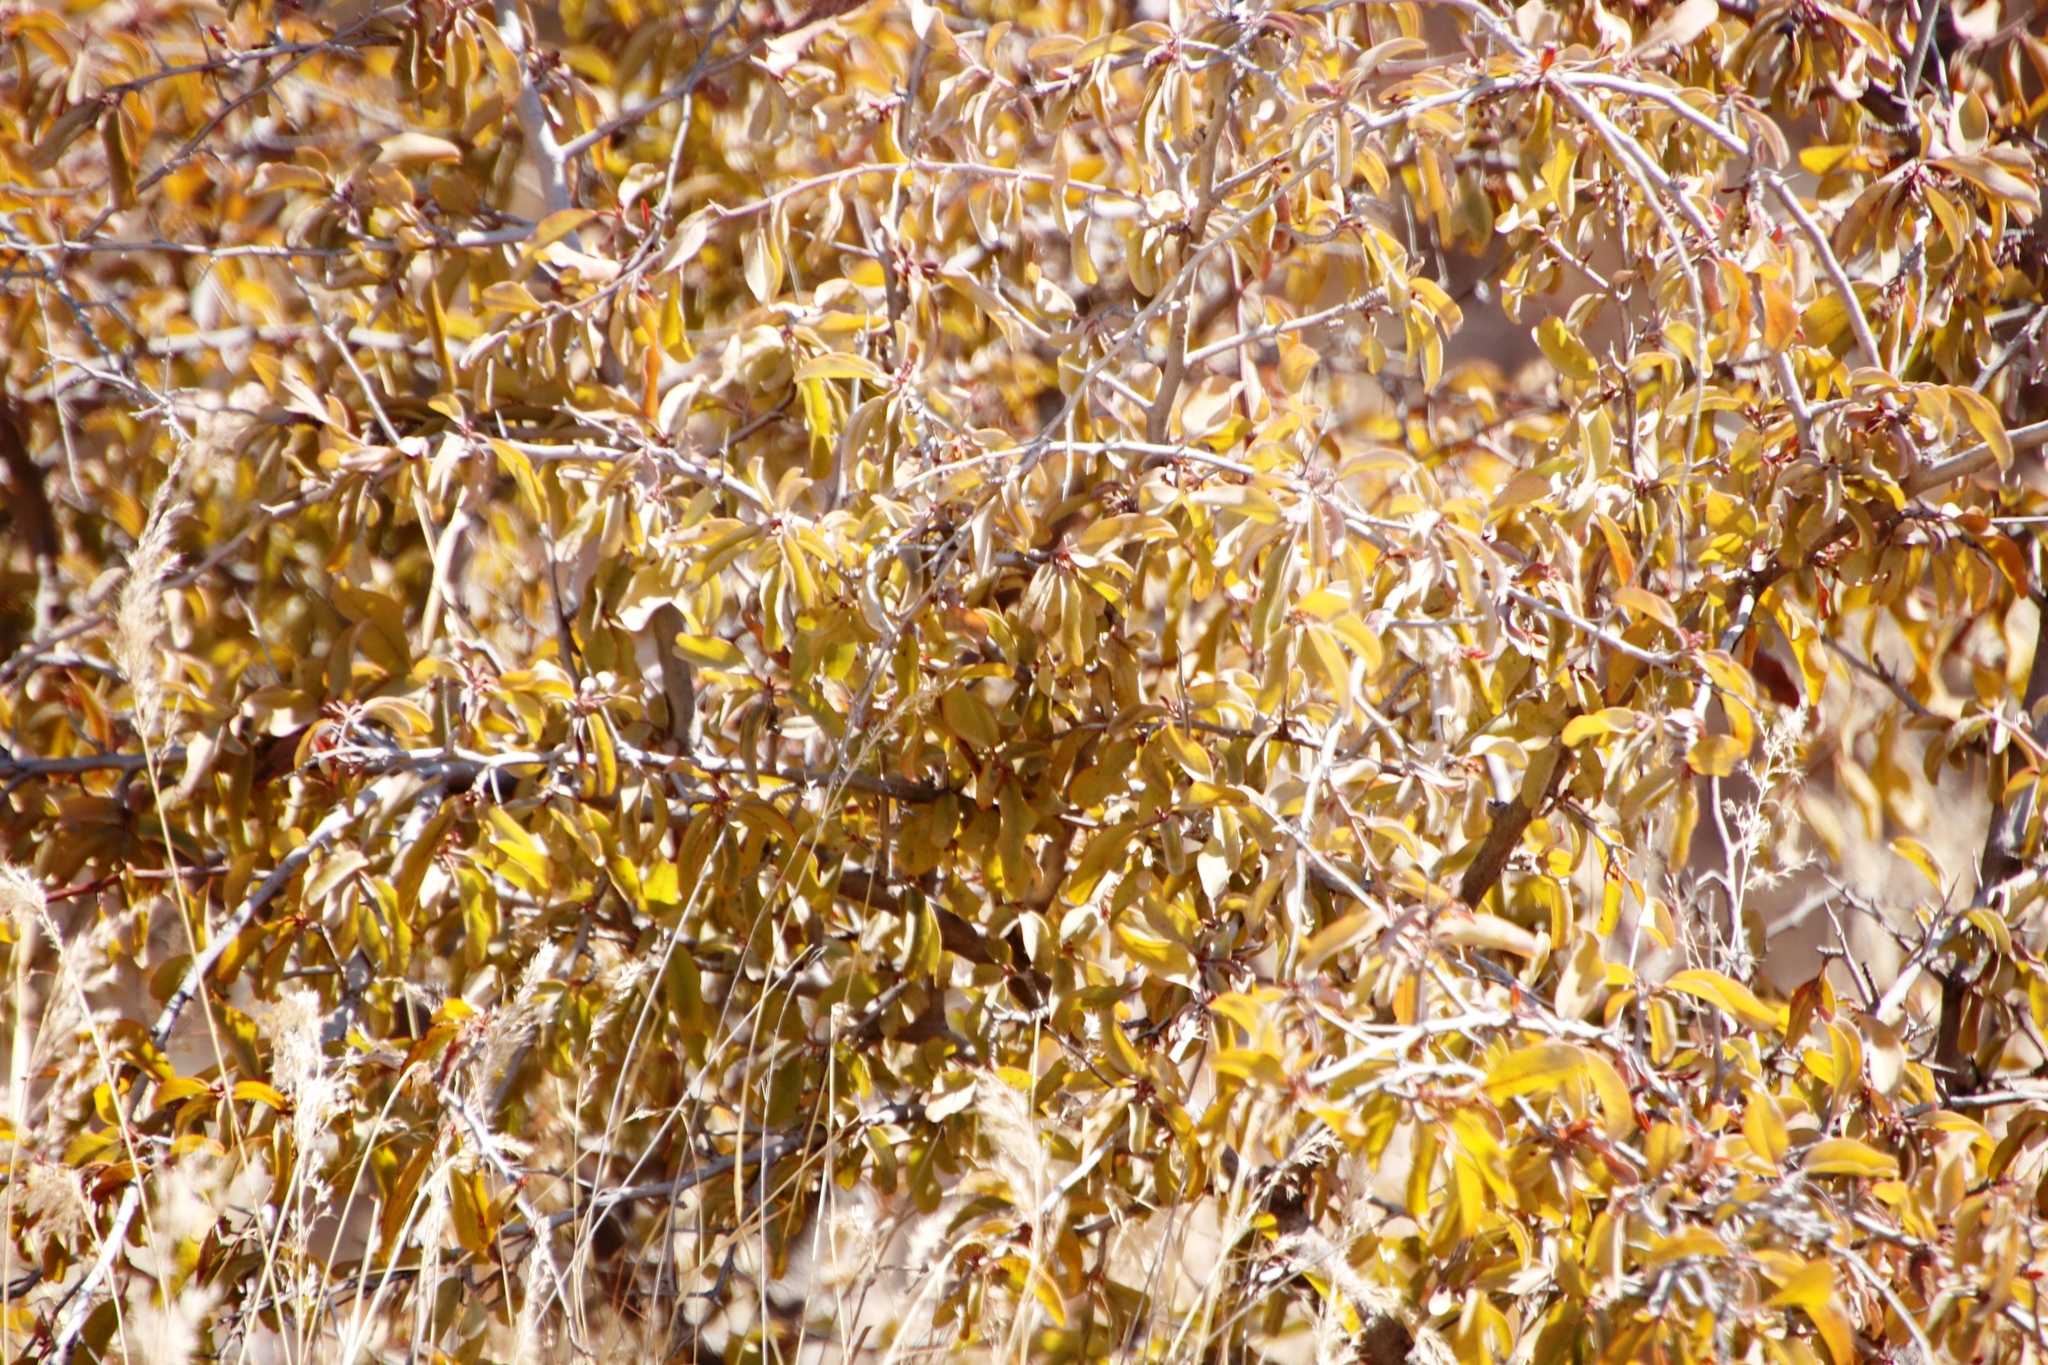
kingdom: Plantae
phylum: Tracheophyta
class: Magnoliopsida
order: Santalales
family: Ximeniaceae
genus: Ximenia
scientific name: Ximenia americana
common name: Tallowwood
